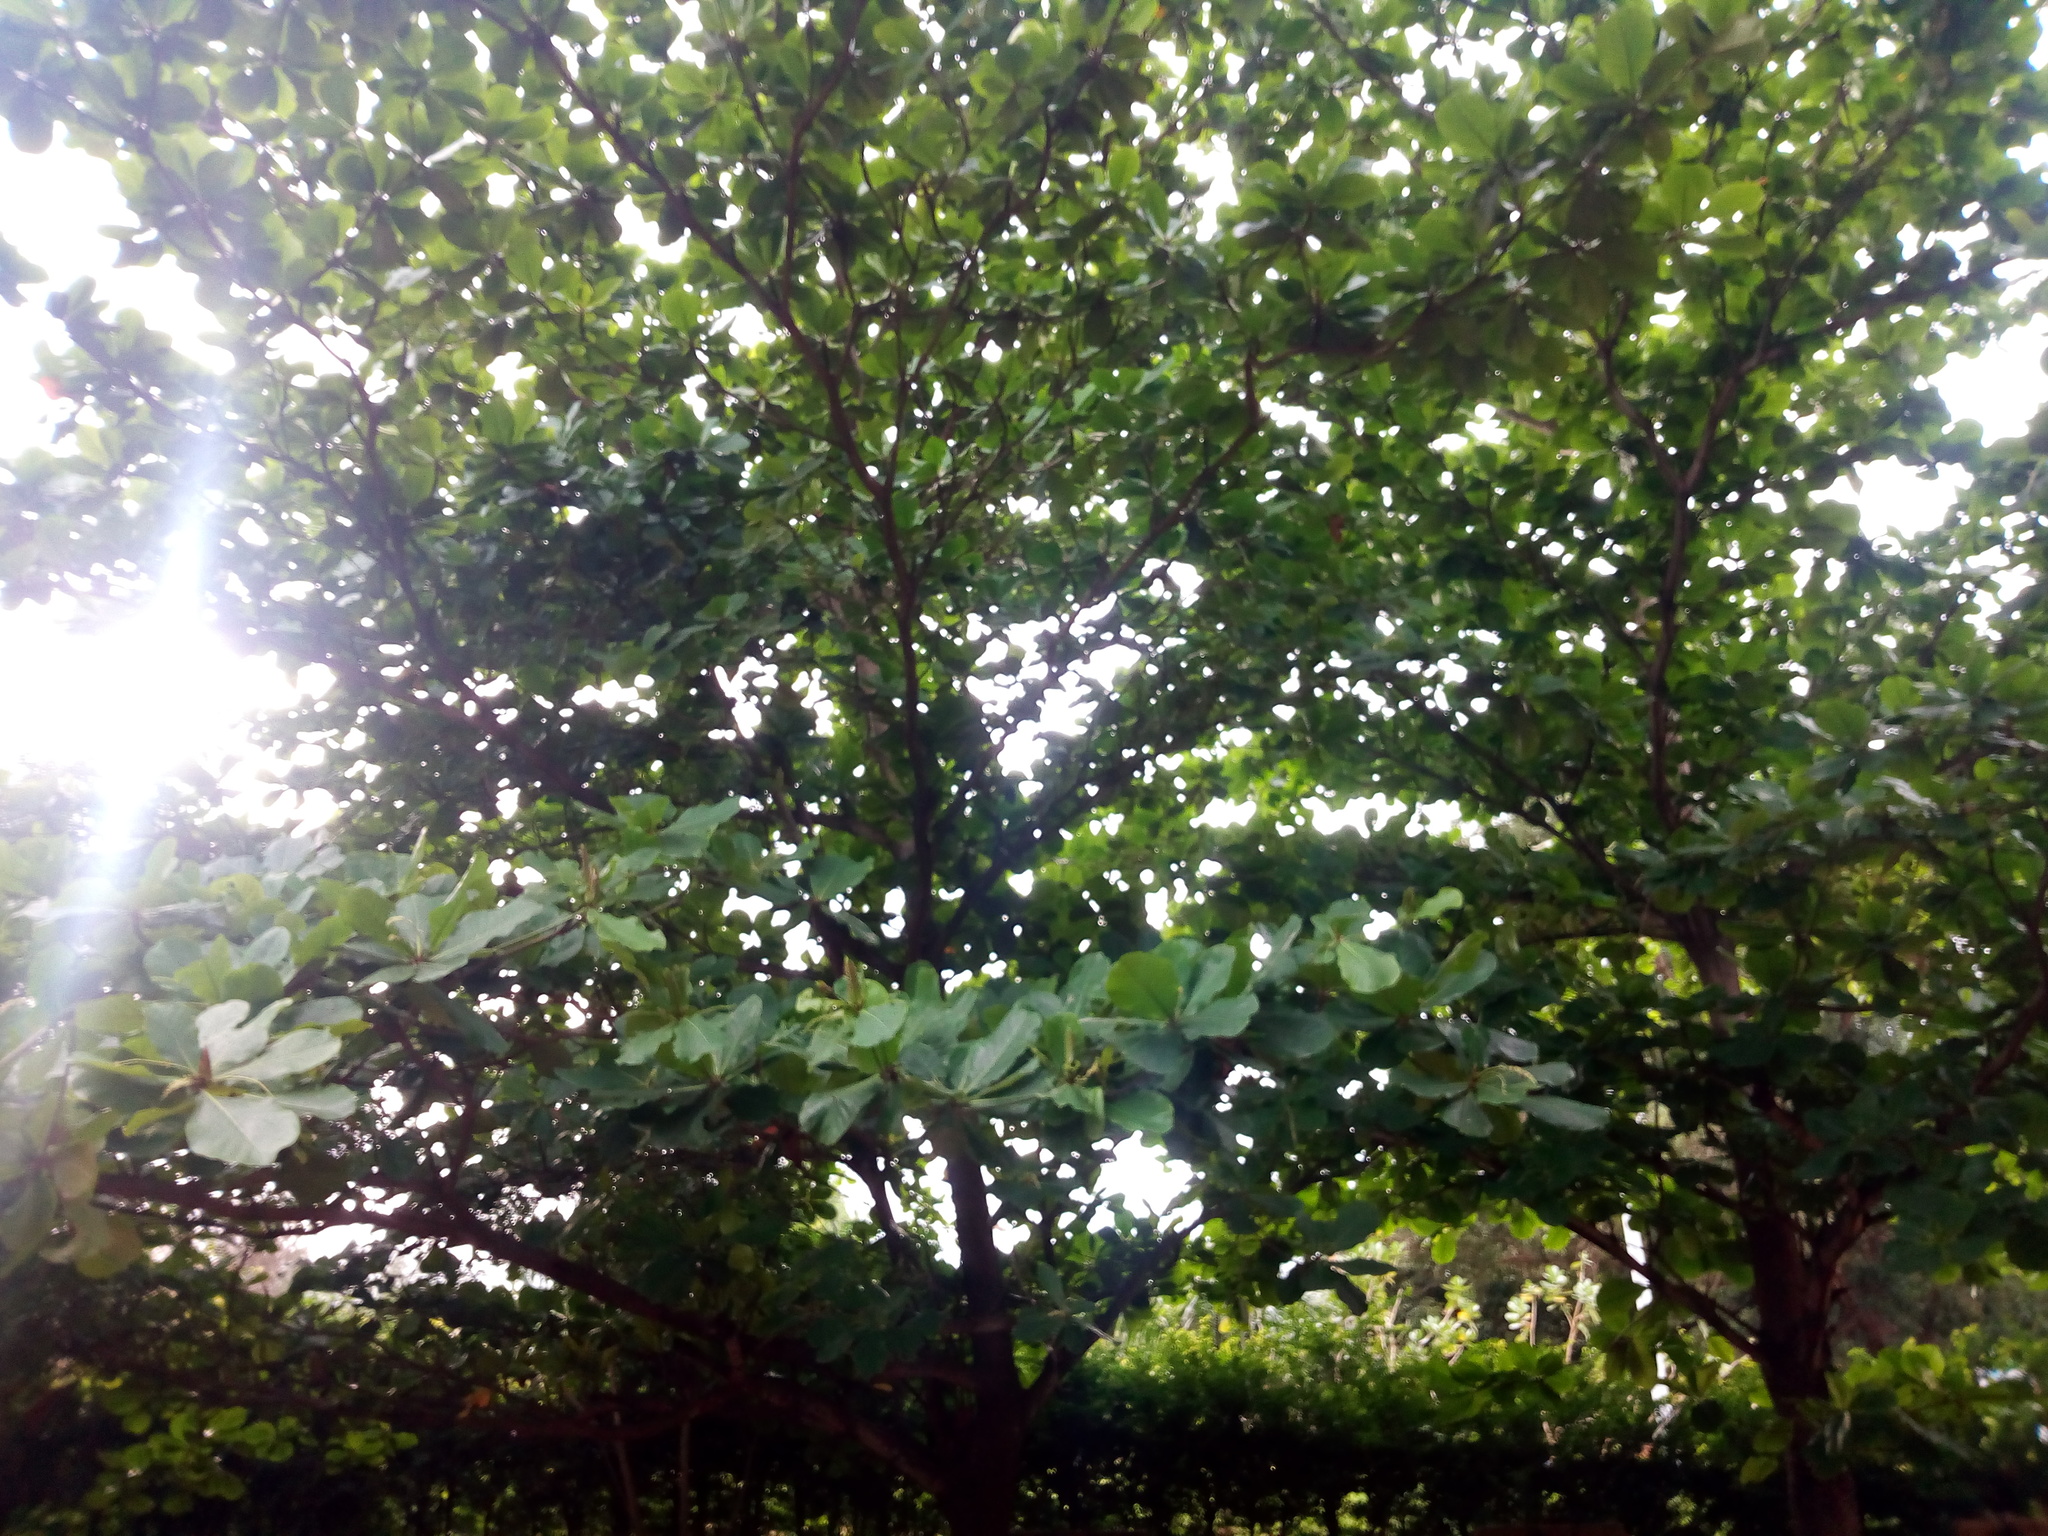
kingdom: Plantae
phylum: Tracheophyta
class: Magnoliopsida
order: Myrtales
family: Combretaceae
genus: Terminalia
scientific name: Terminalia catappa
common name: Tropical almond
